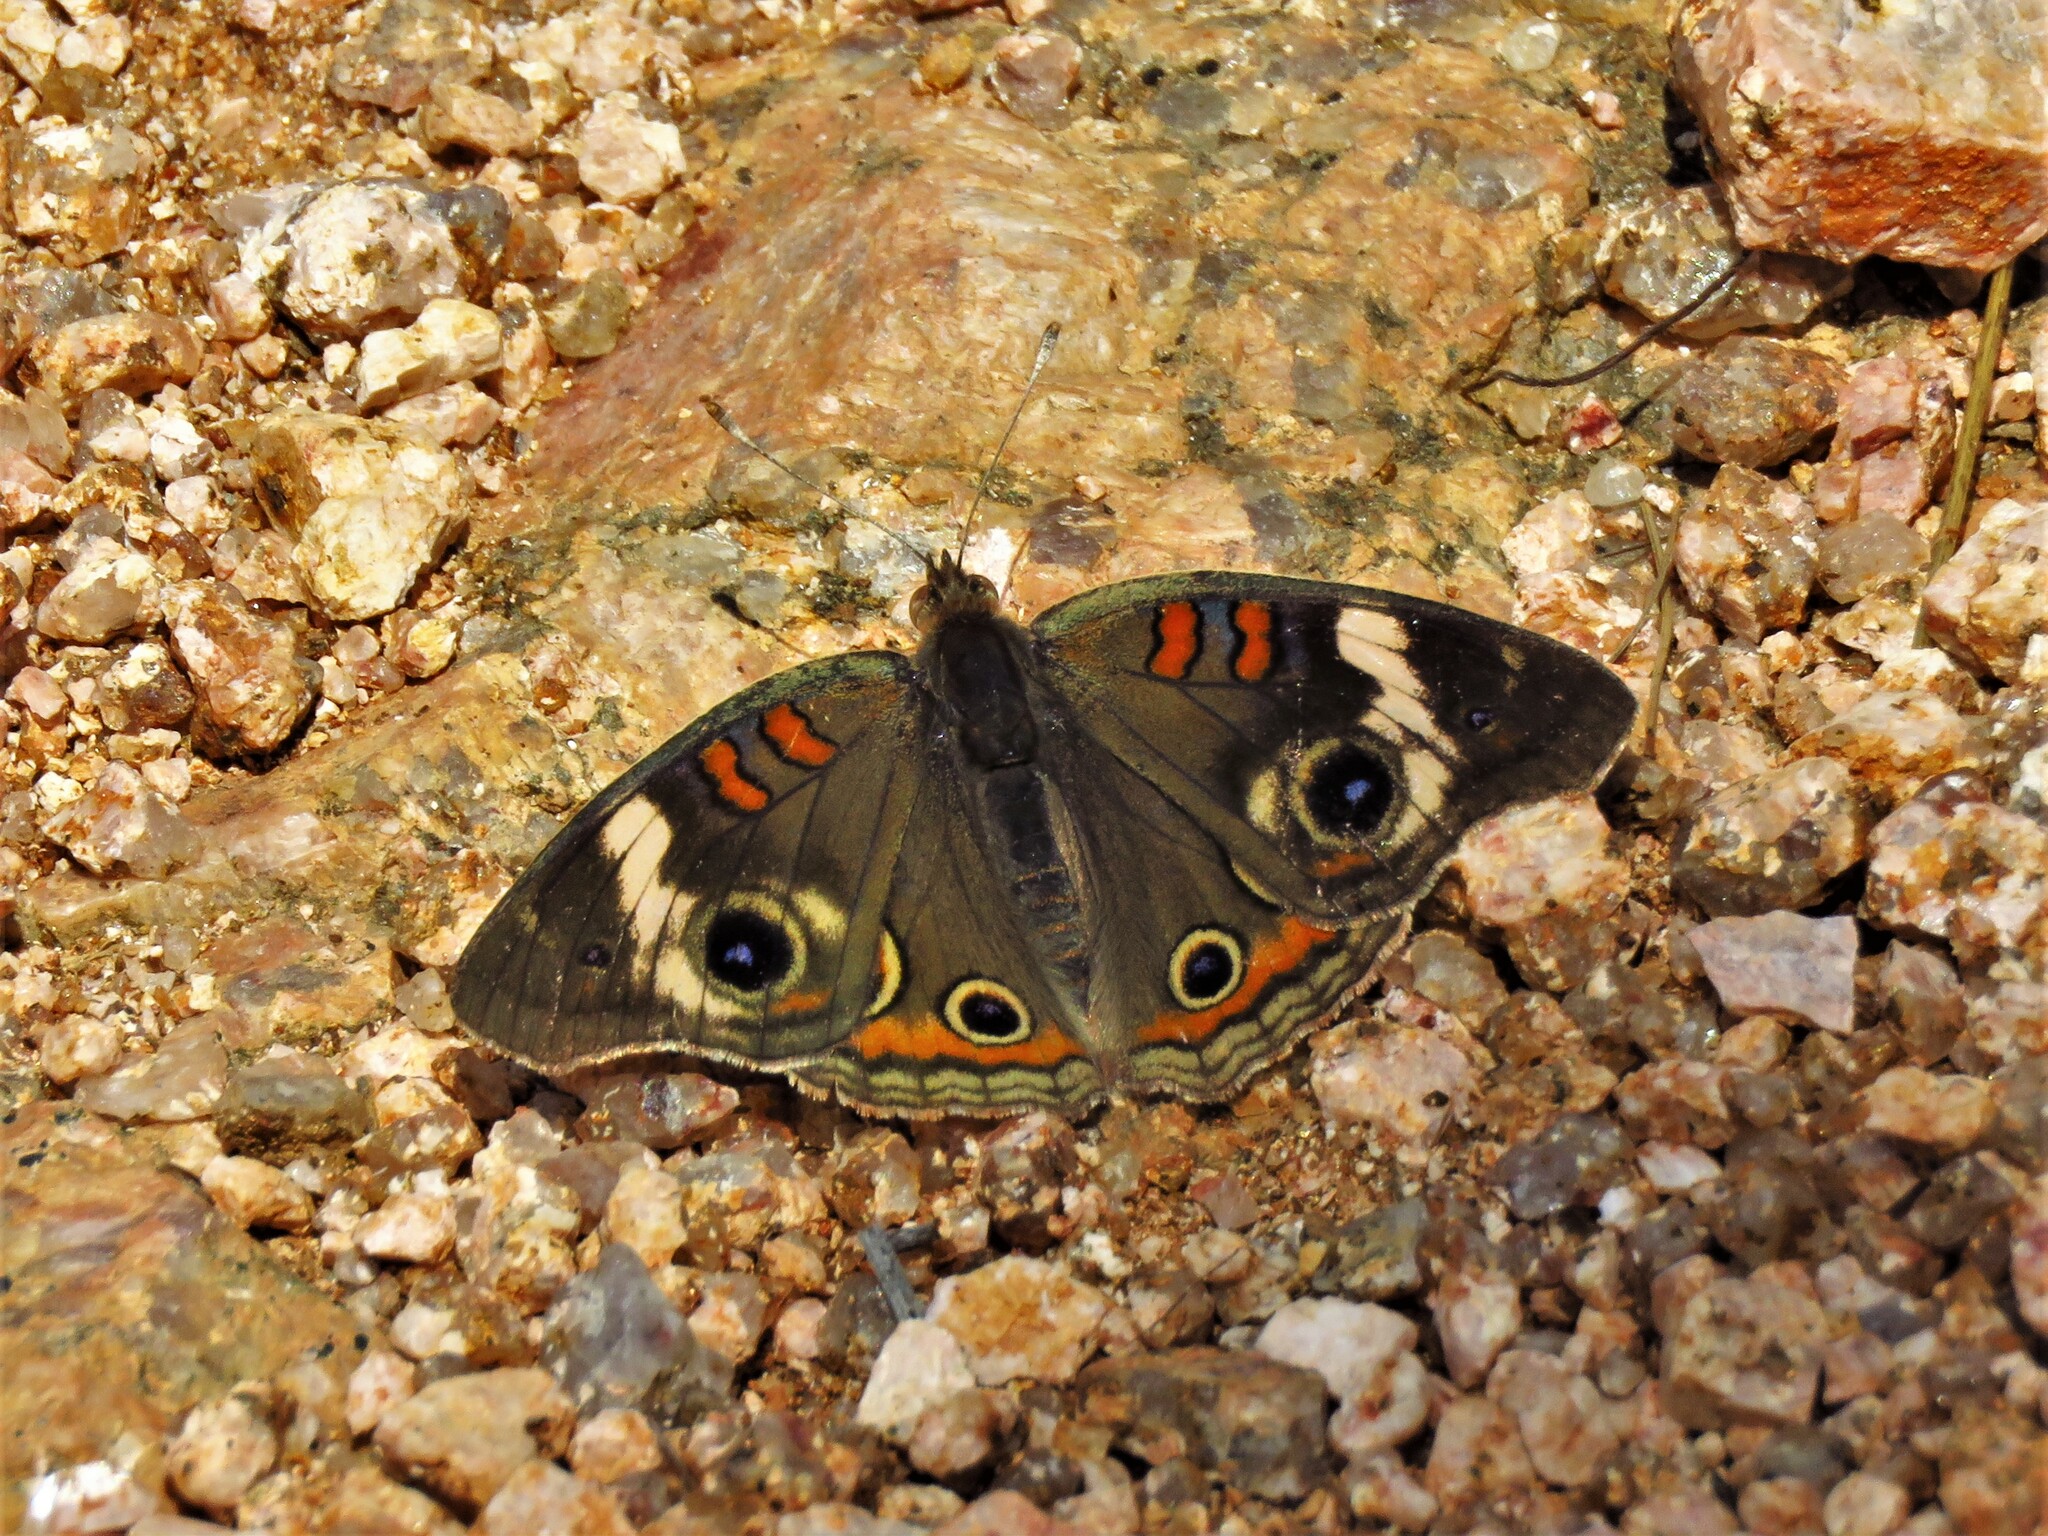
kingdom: Animalia
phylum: Arthropoda
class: Insecta
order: Lepidoptera
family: Nymphalidae
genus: Junonia
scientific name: Junonia coenia
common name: Common buckeye
